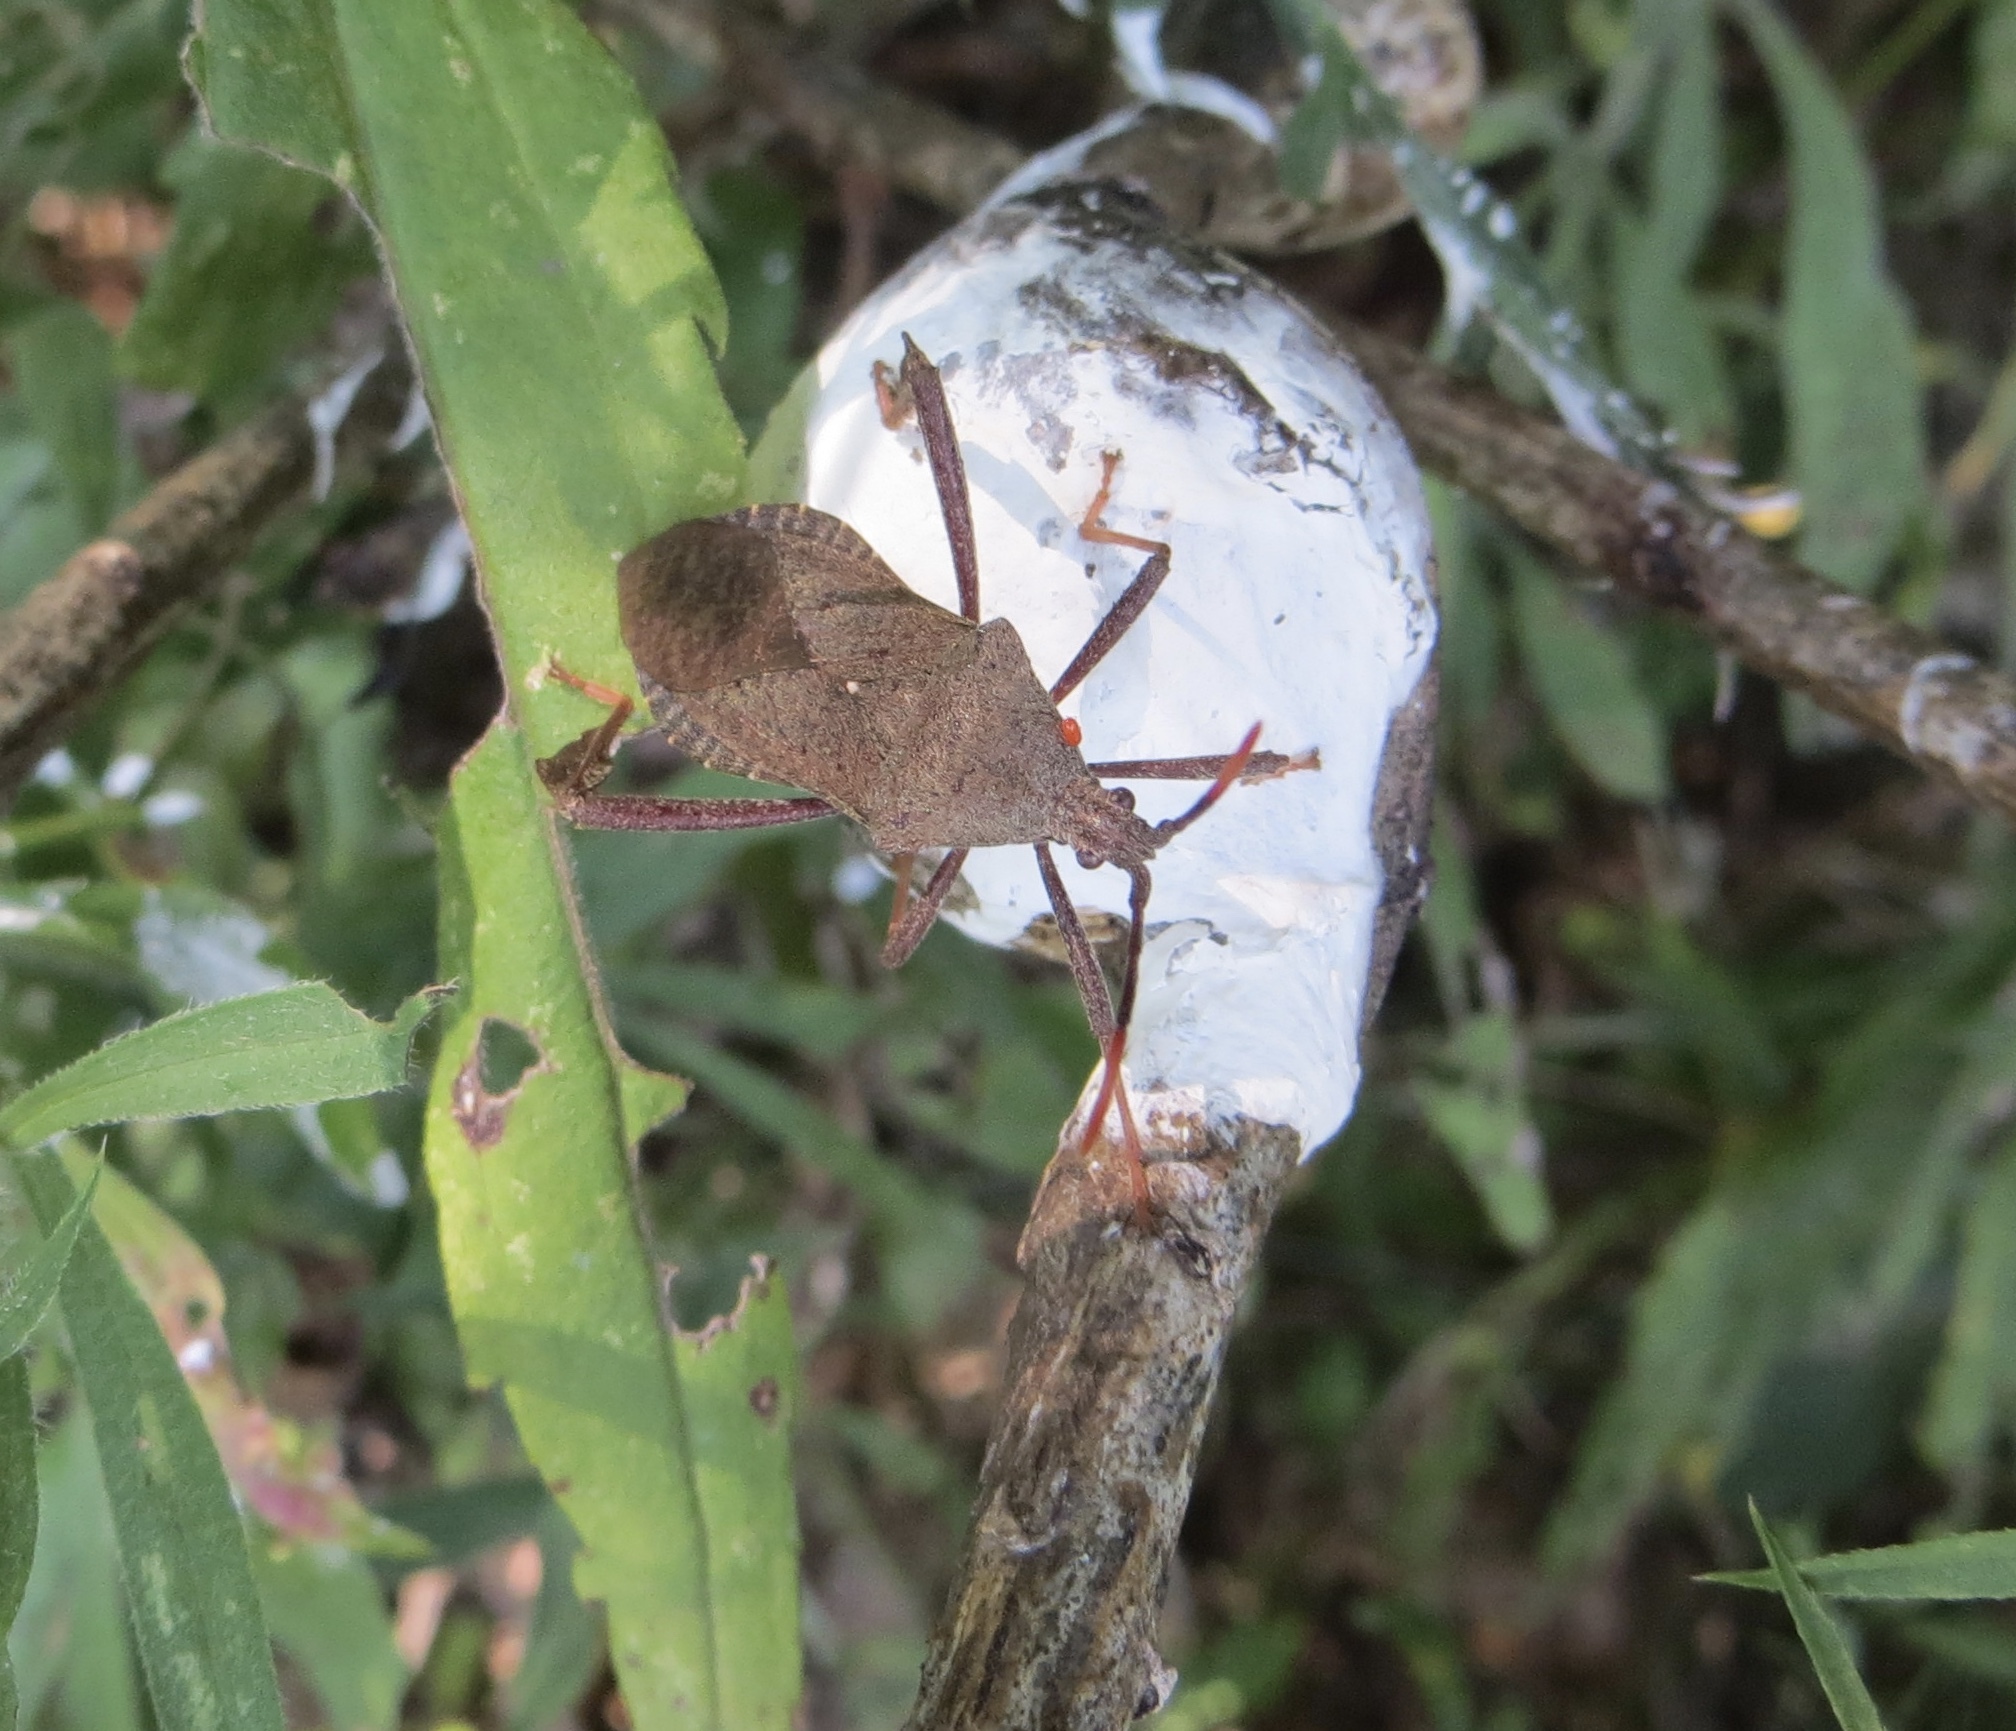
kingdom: Animalia
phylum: Arthropoda
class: Insecta
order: Hemiptera
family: Coreidae
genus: Acanthocephala
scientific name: Acanthocephala terminalis
